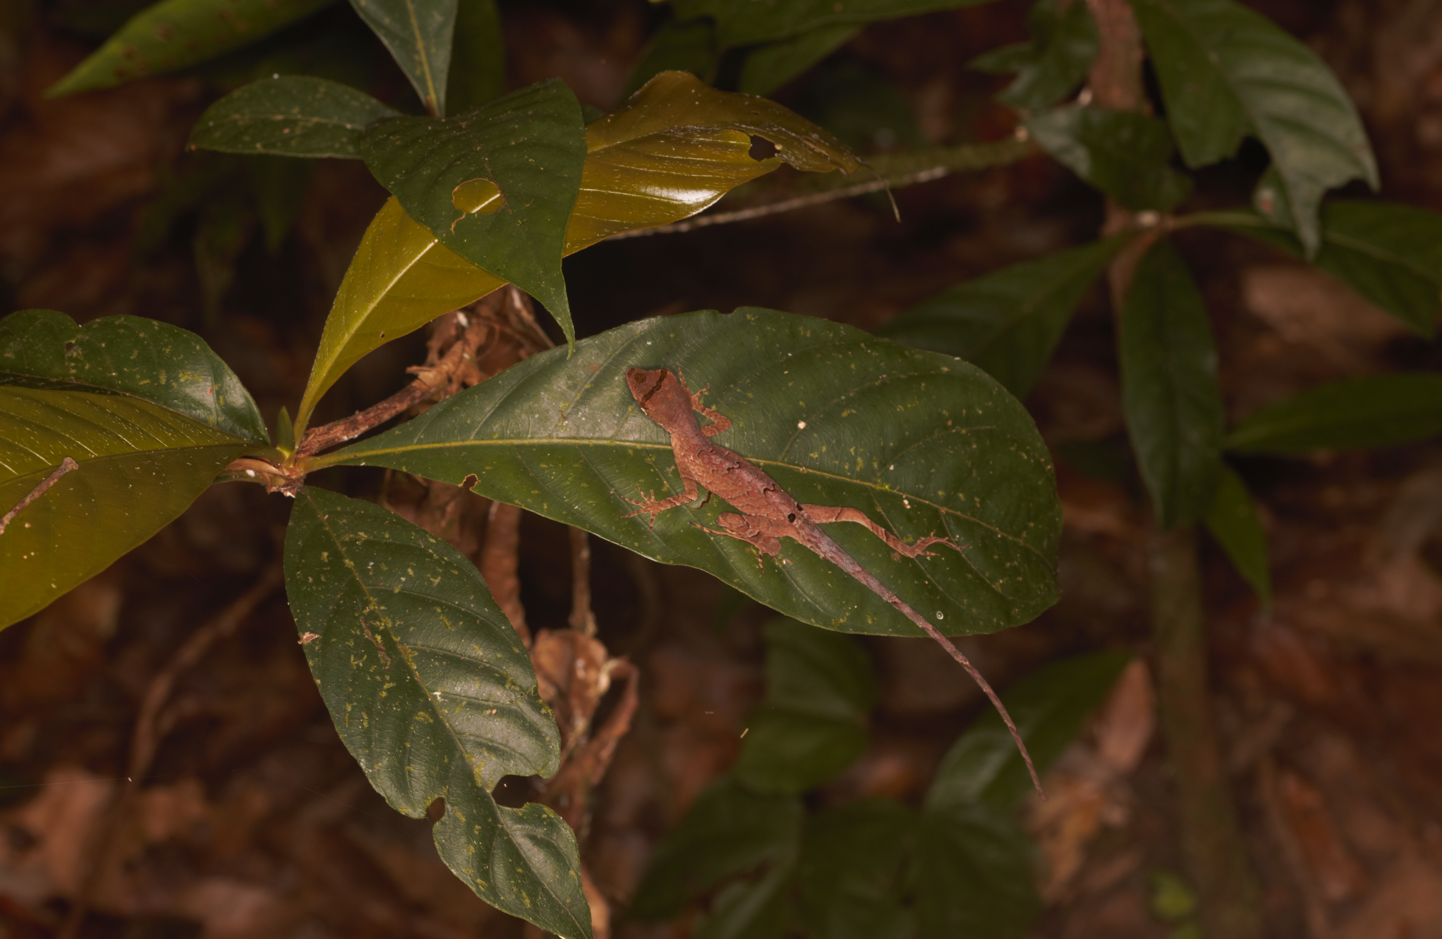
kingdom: Animalia
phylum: Chordata
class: Squamata
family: Dactyloidae
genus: Anolis
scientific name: Anolis chrysolepis
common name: Goldenscale anole
